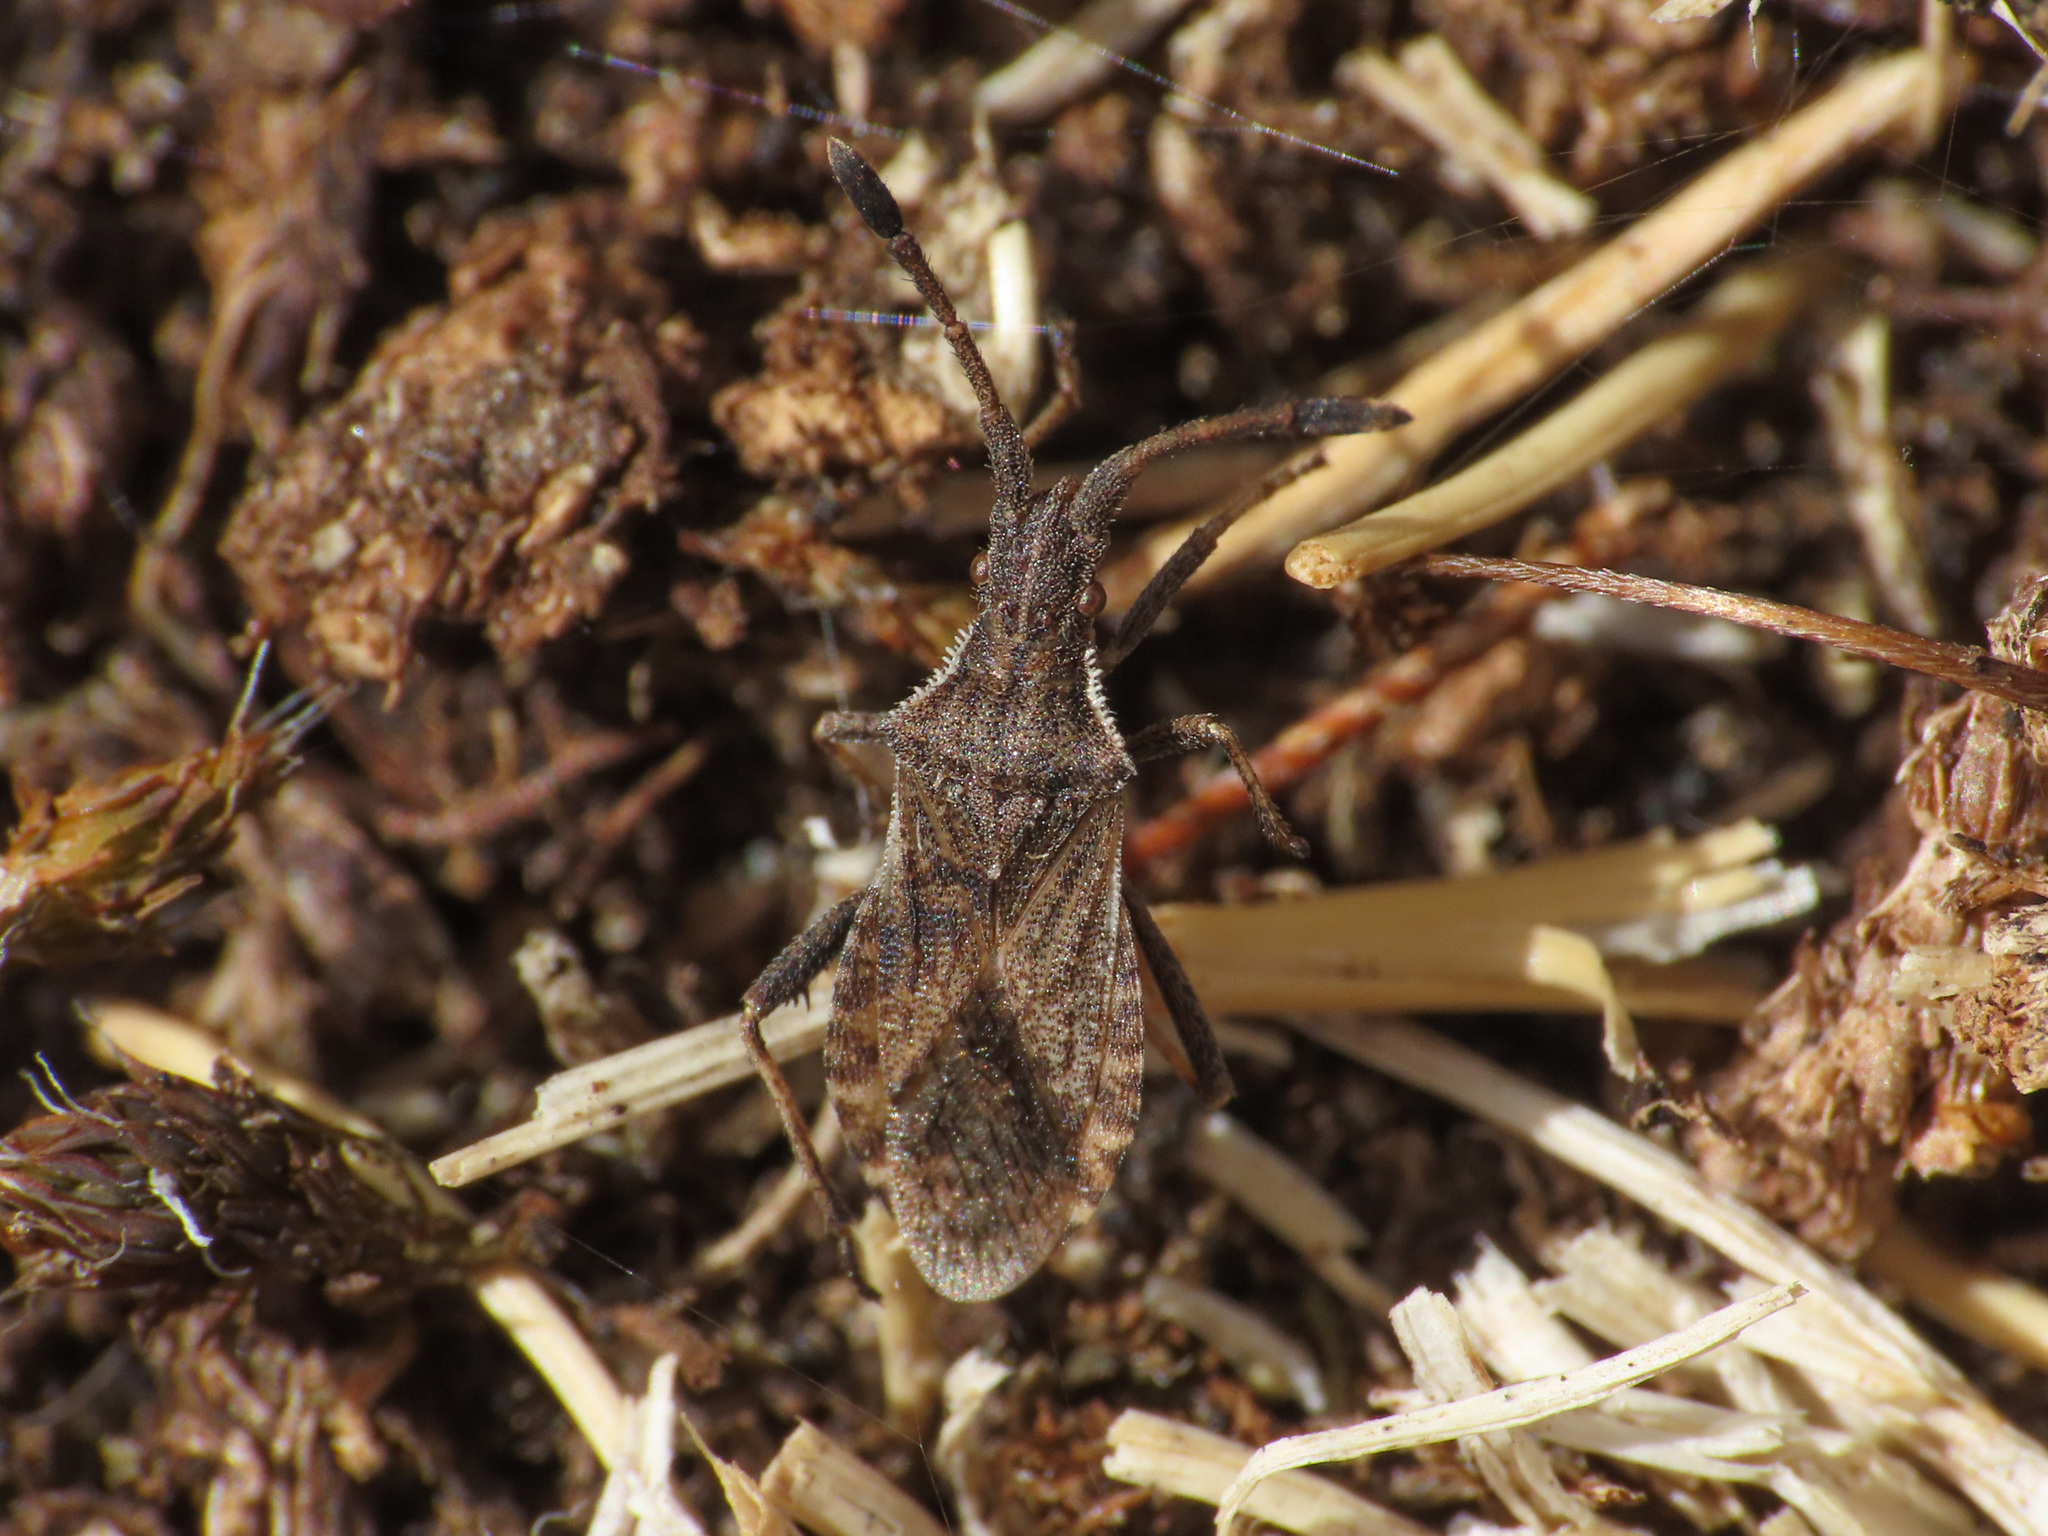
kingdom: Animalia
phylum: Arthropoda
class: Insecta
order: Hemiptera
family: Coreidae
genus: Coriomeris
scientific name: Coriomeris scabricornis
